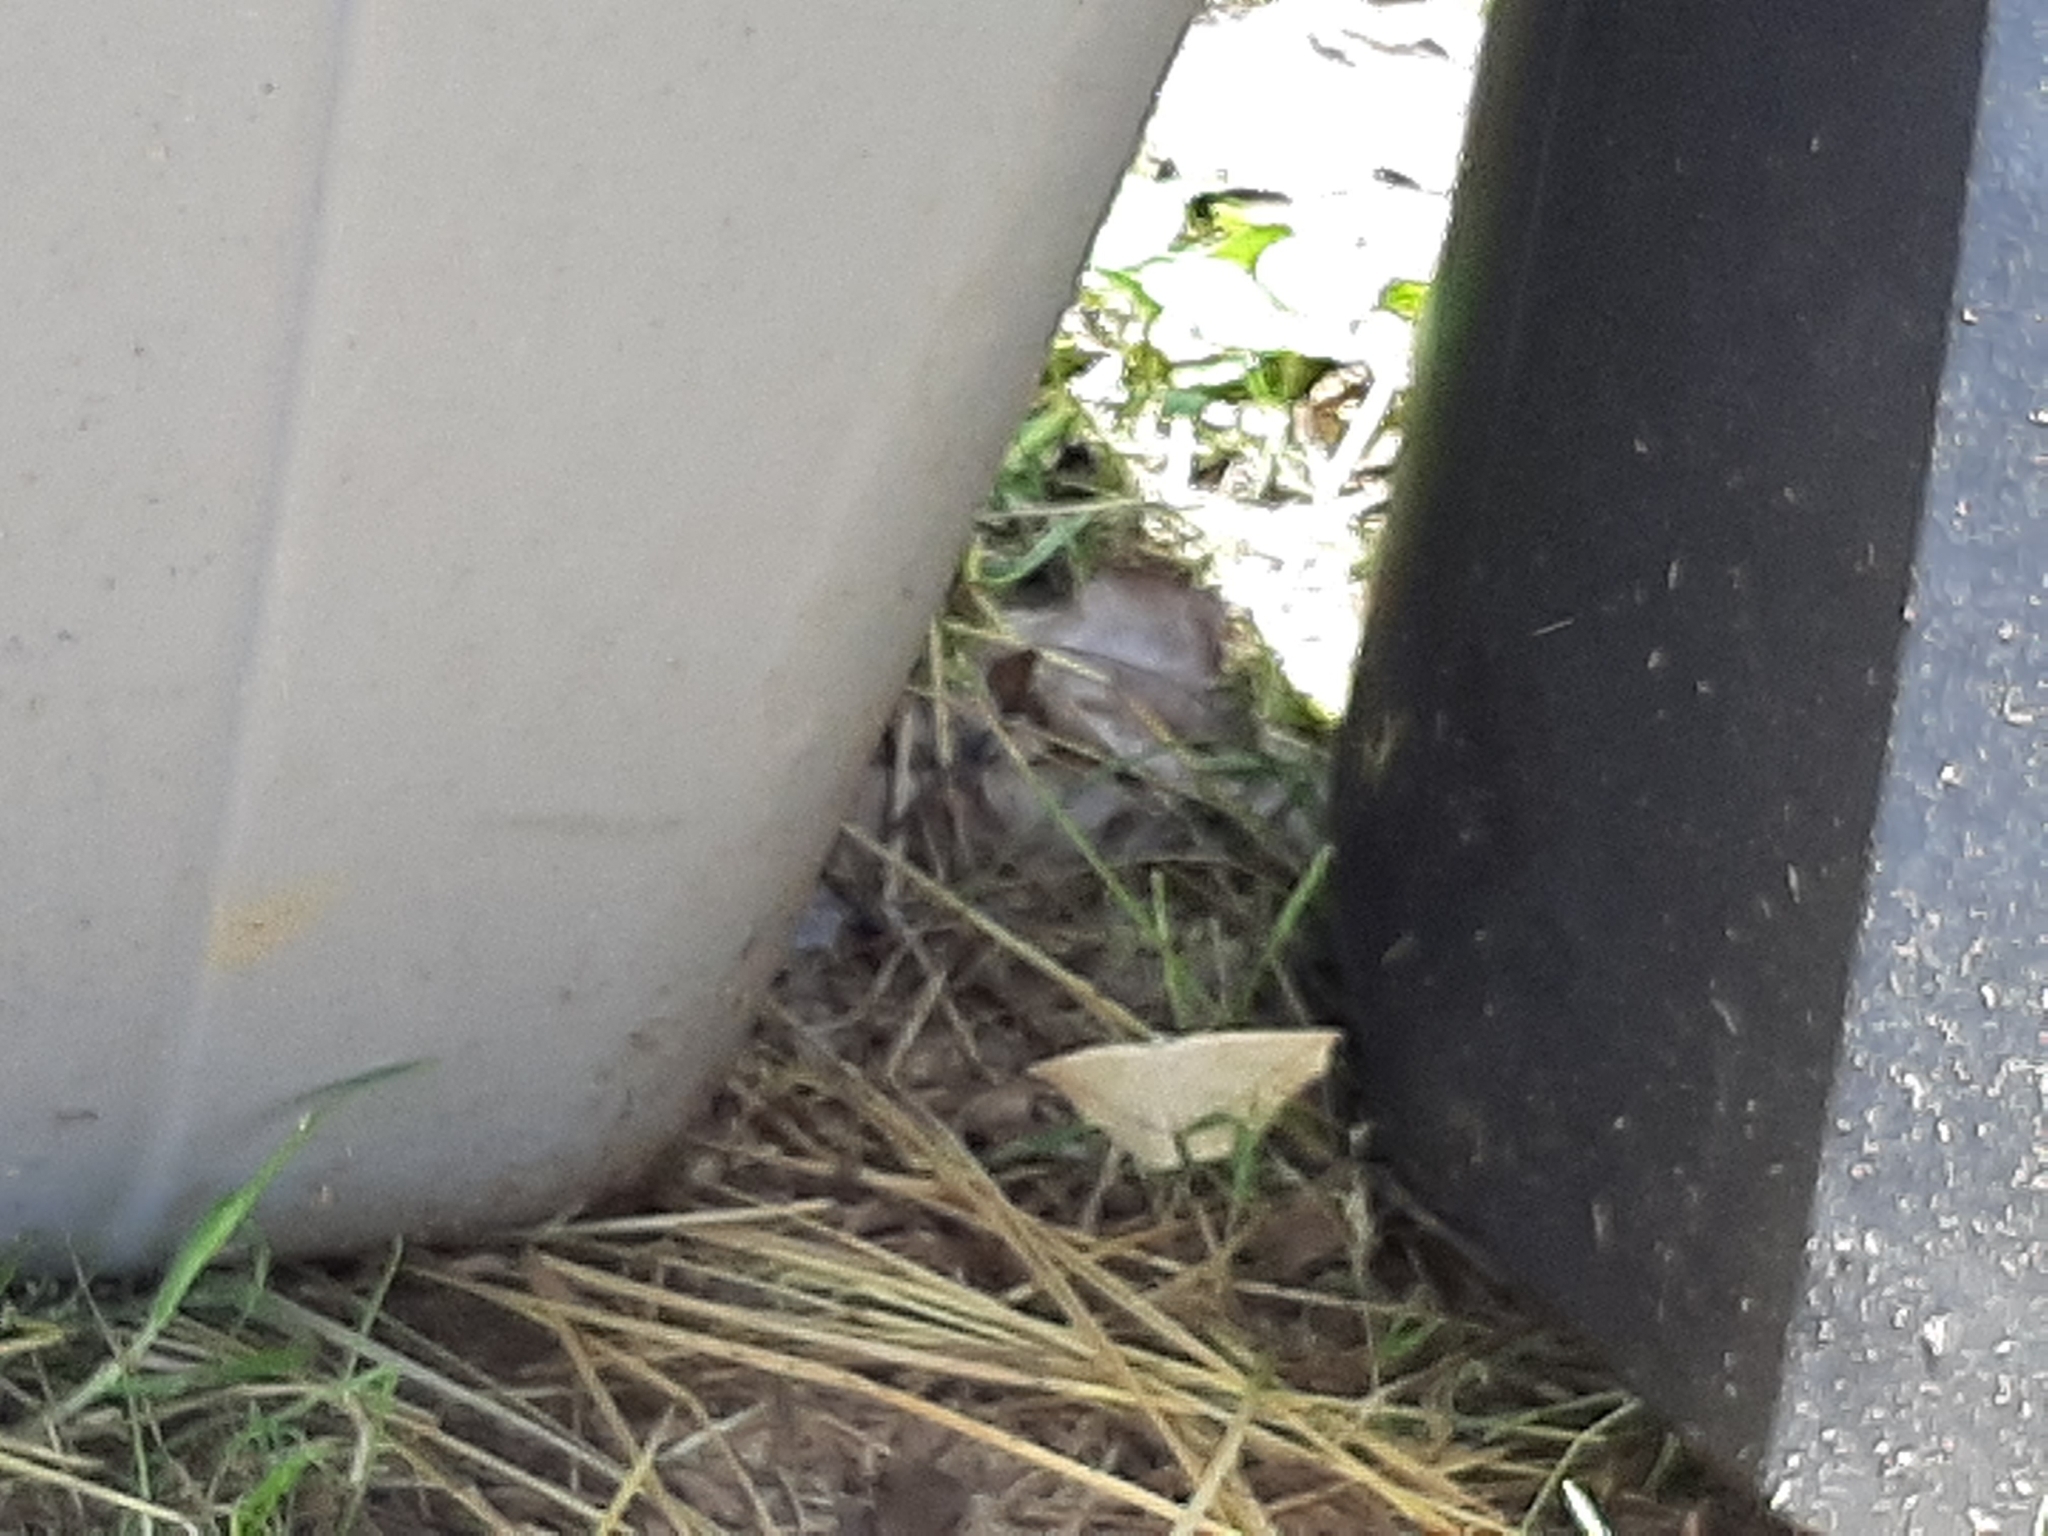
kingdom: Animalia
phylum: Arthropoda
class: Insecta
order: Lepidoptera
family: Geometridae
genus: Eusarca
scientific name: Eusarca confusaria
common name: Confused eusarca
